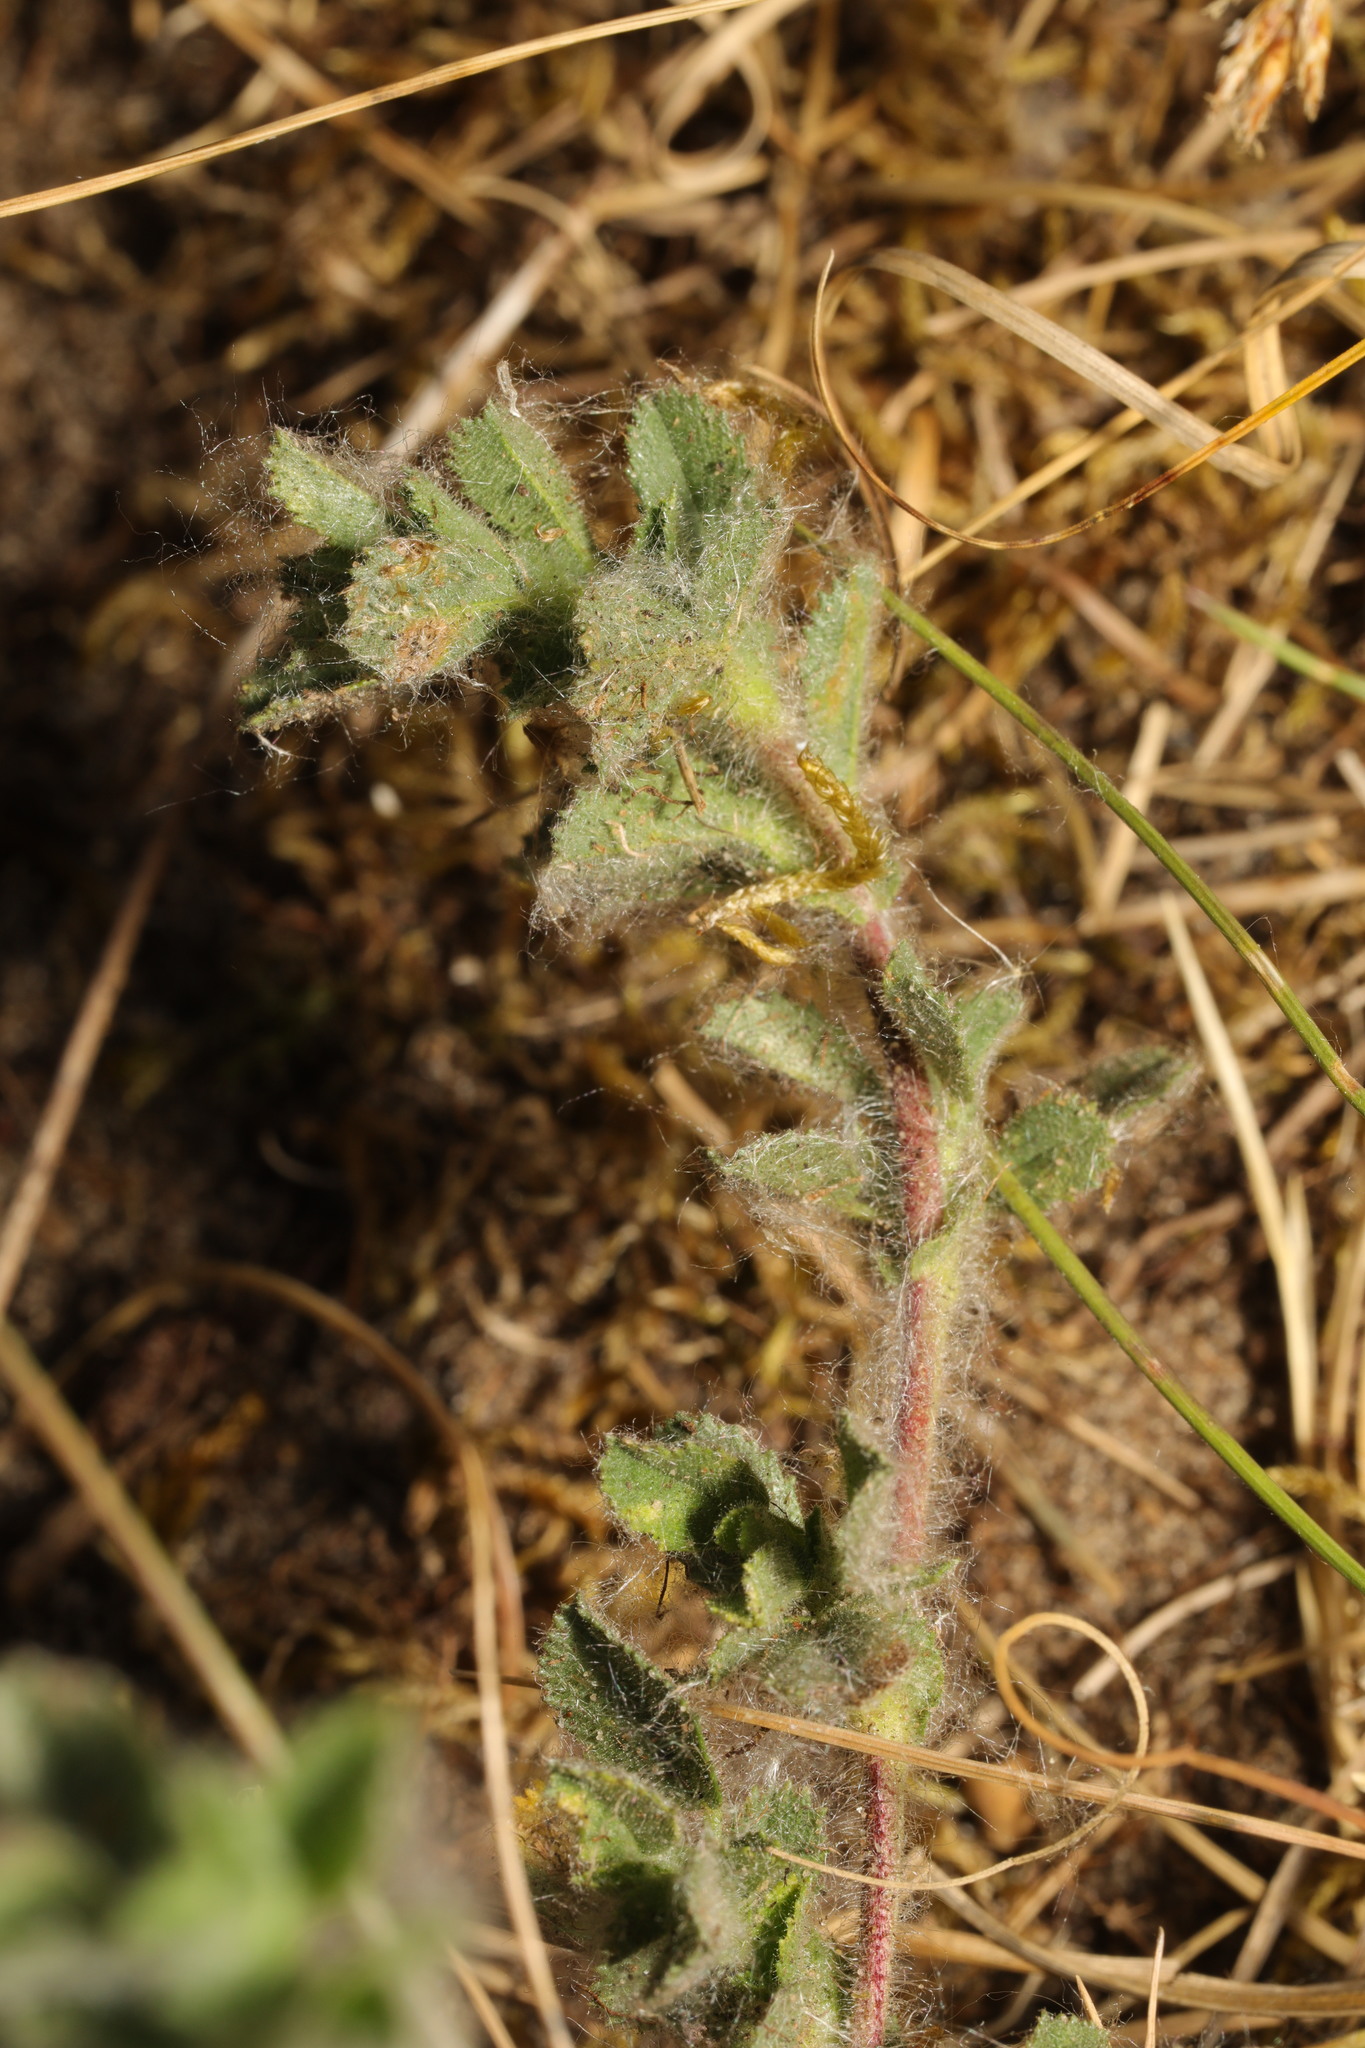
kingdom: Plantae
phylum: Tracheophyta
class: Magnoliopsida
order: Fabales
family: Fabaceae
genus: Ononis
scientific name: Ononis spinosa
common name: Spiny restharrow
